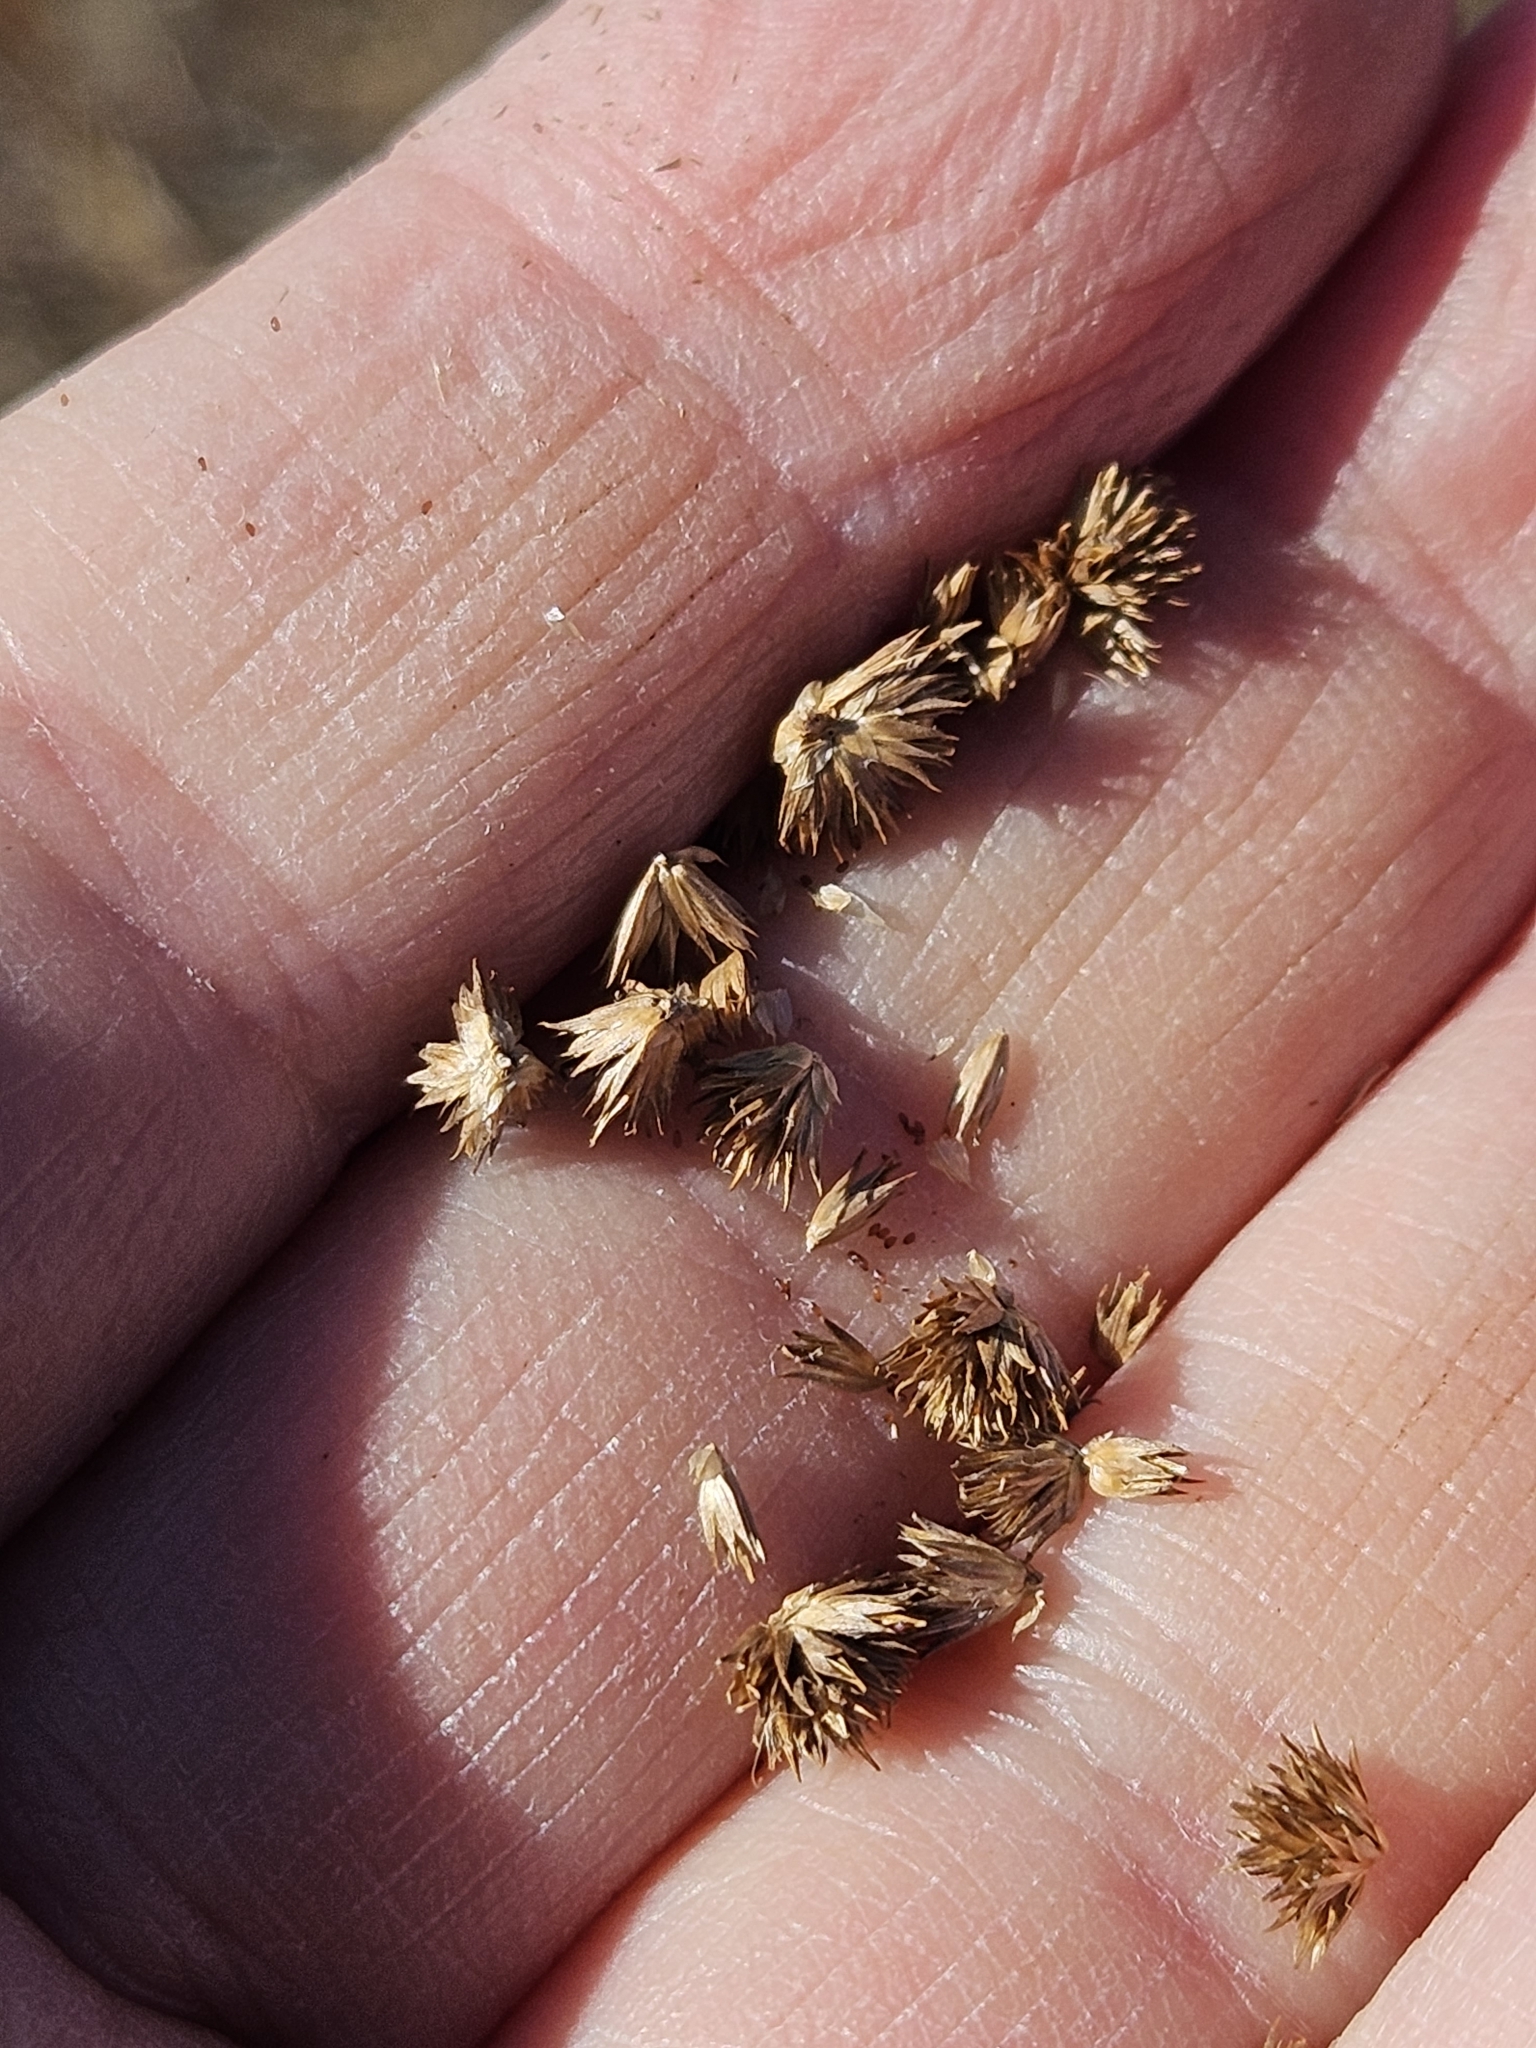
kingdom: Plantae
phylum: Tracheophyta
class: Liliopsida
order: Poales
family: Juncaceae
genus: Juncus
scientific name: Juncus scirpoides
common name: Needlepod rush
